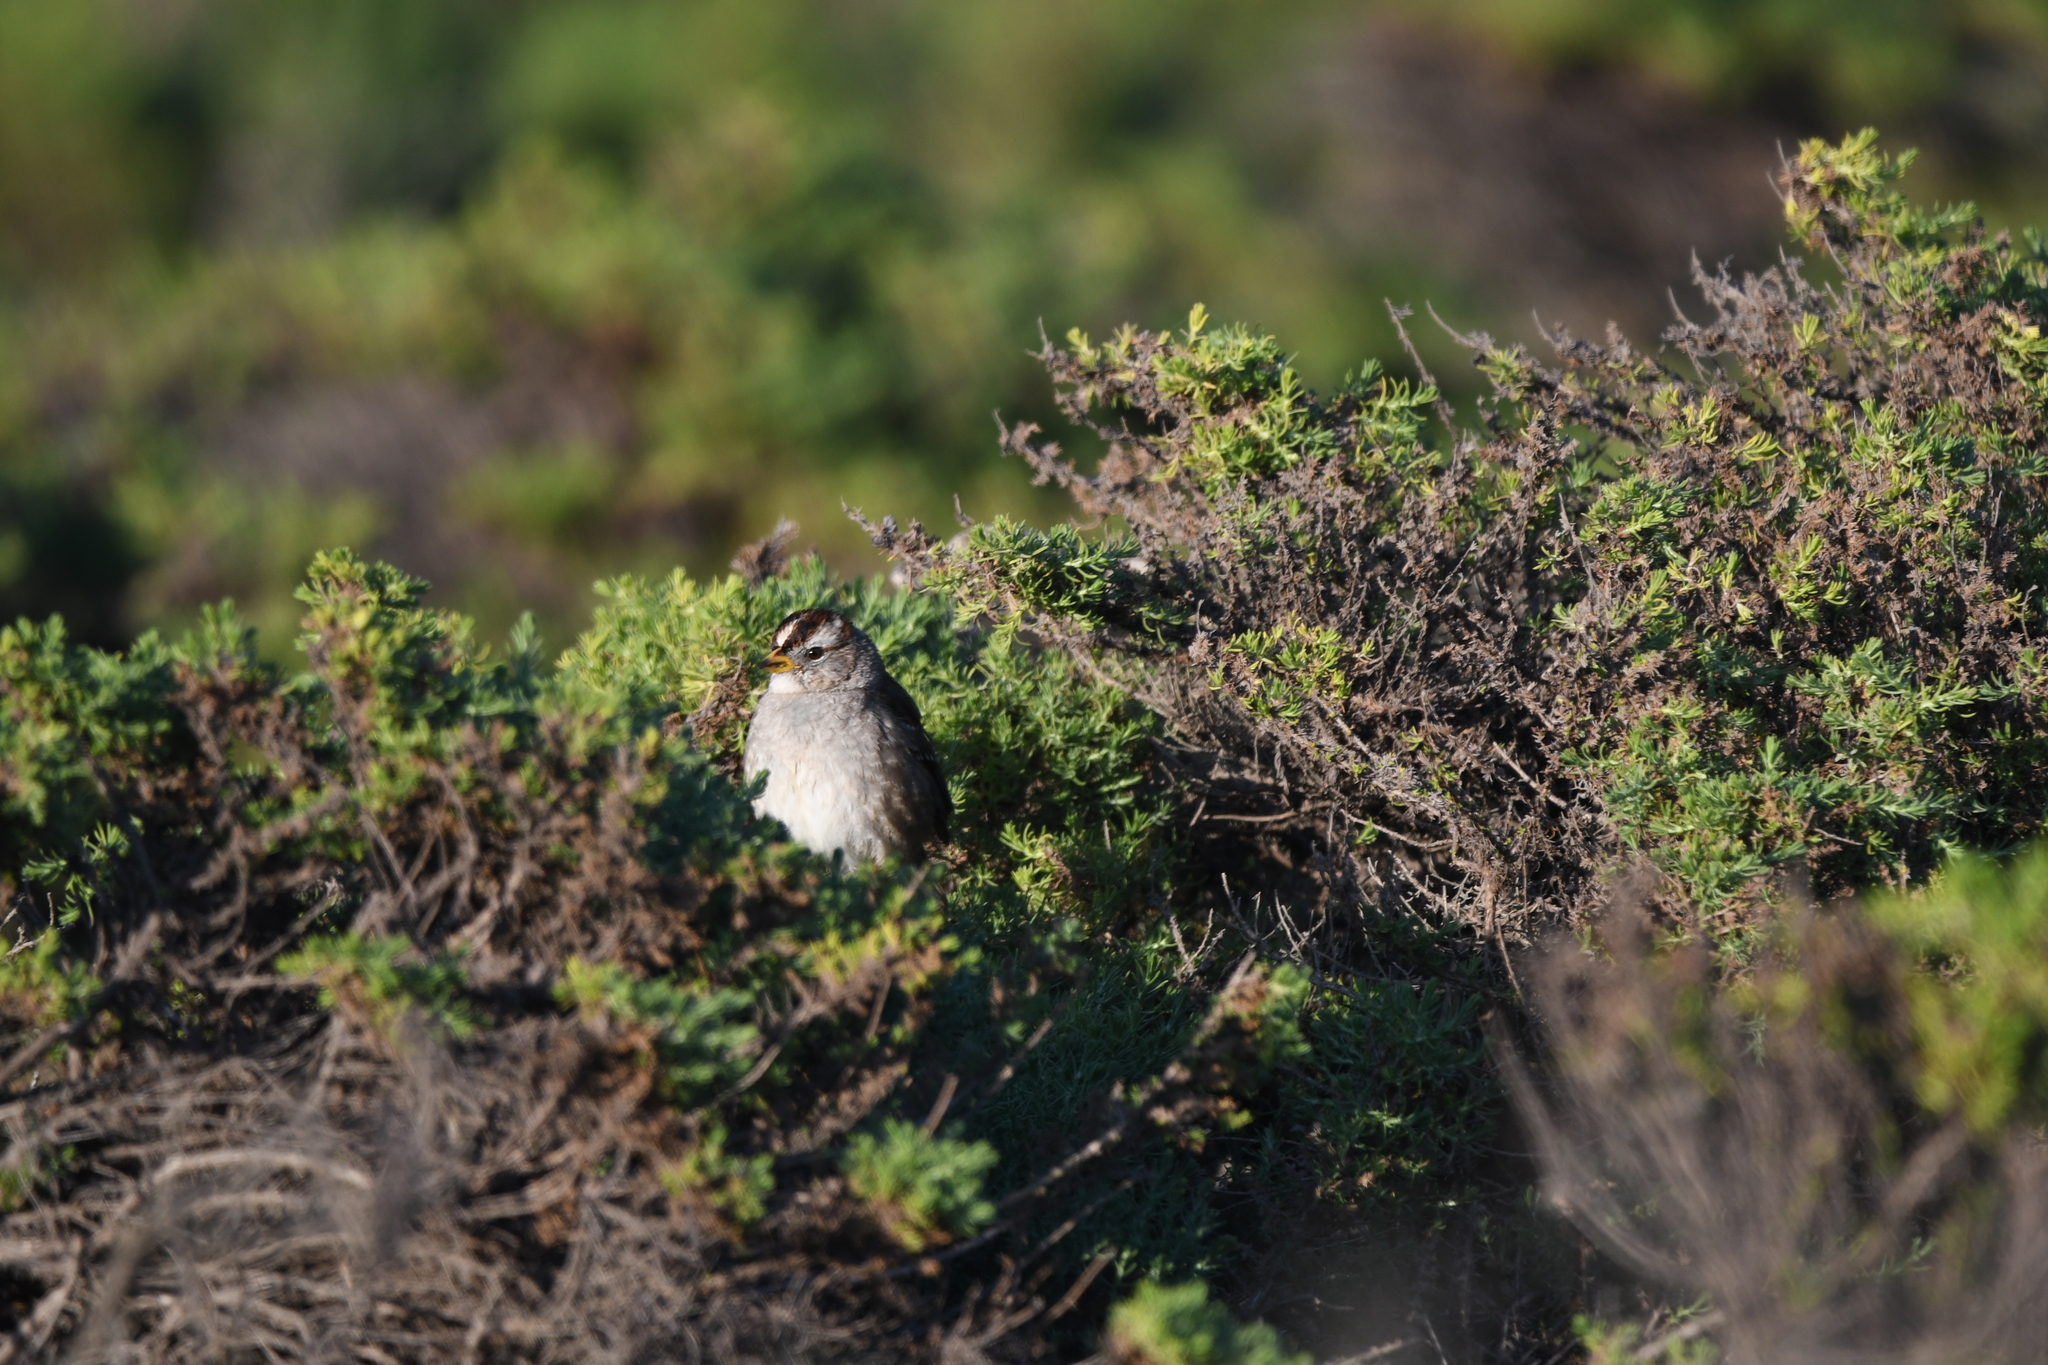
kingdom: Animalia
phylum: Chordata
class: Aves
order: Passeriformes
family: Passerellidae
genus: Zonotrichia
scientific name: Zonotrichia leucophrys
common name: White-crowned sparrow
